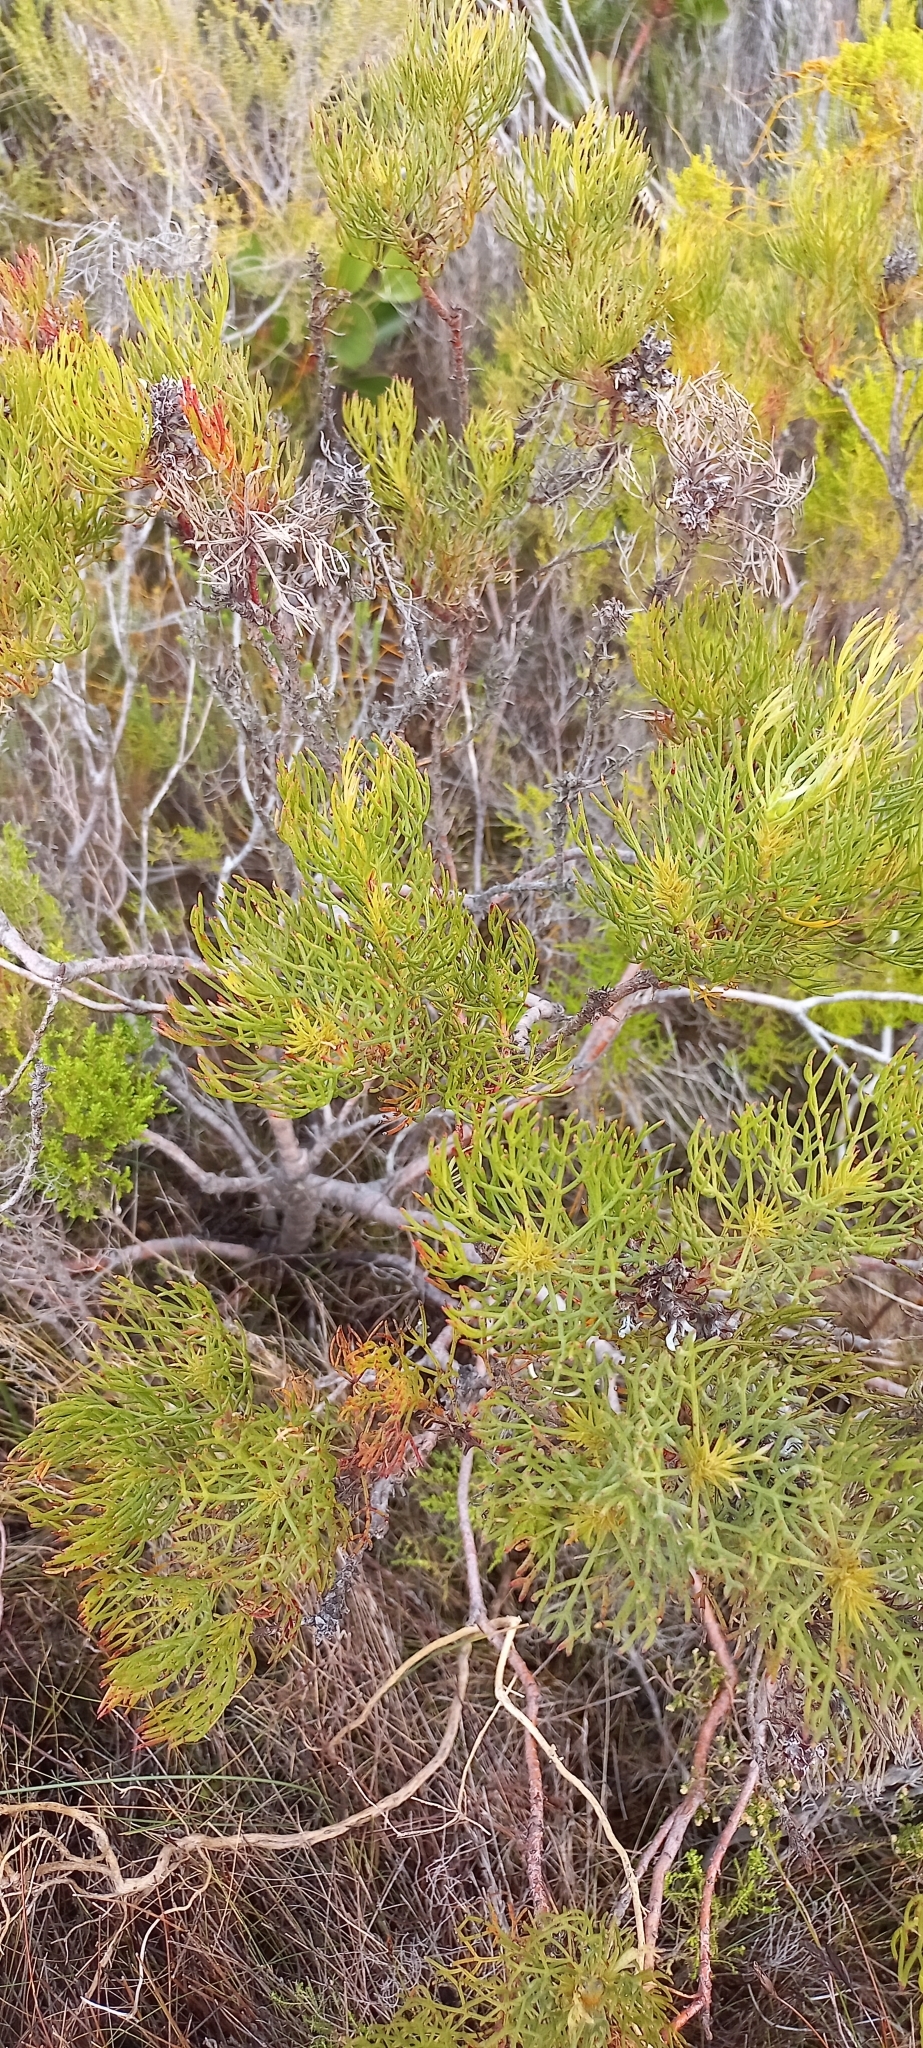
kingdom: Plantae
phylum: Tracheophyta
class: Magnoliopsida
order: Proteales
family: Proteaceae
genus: Serruria
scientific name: Serruria ascendens
